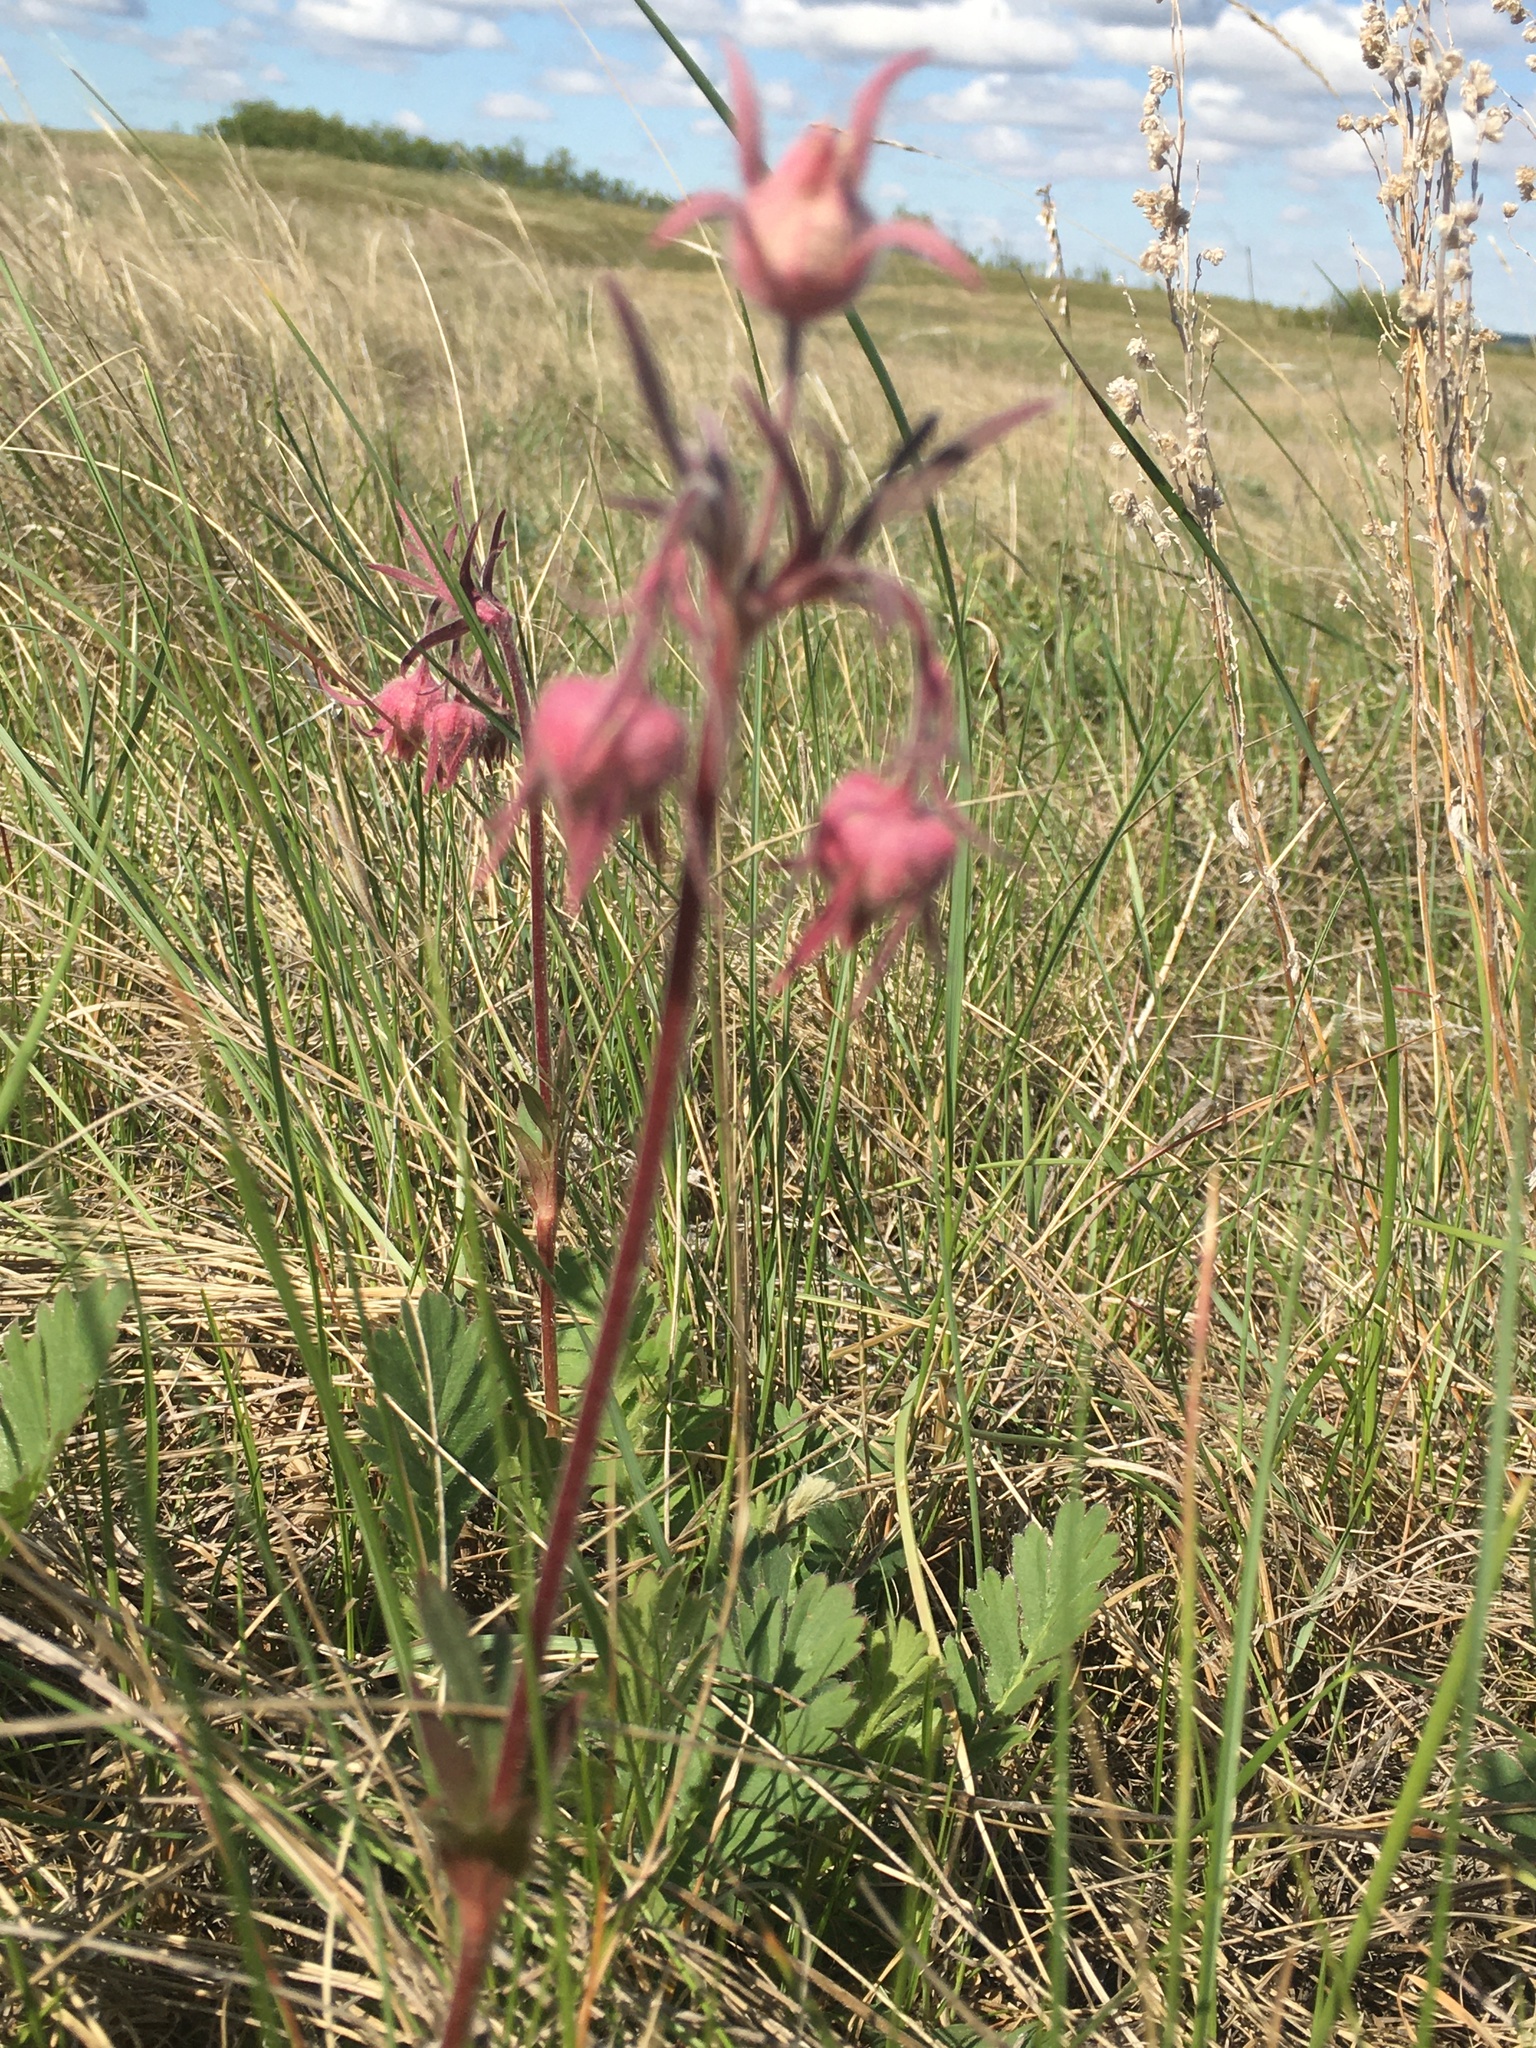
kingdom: Plantae
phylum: Tracheophyta
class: Magnoliopsida
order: Rosales
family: Rosaceae
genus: Geum
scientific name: Geum triflorum
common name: Old man's whiskers
